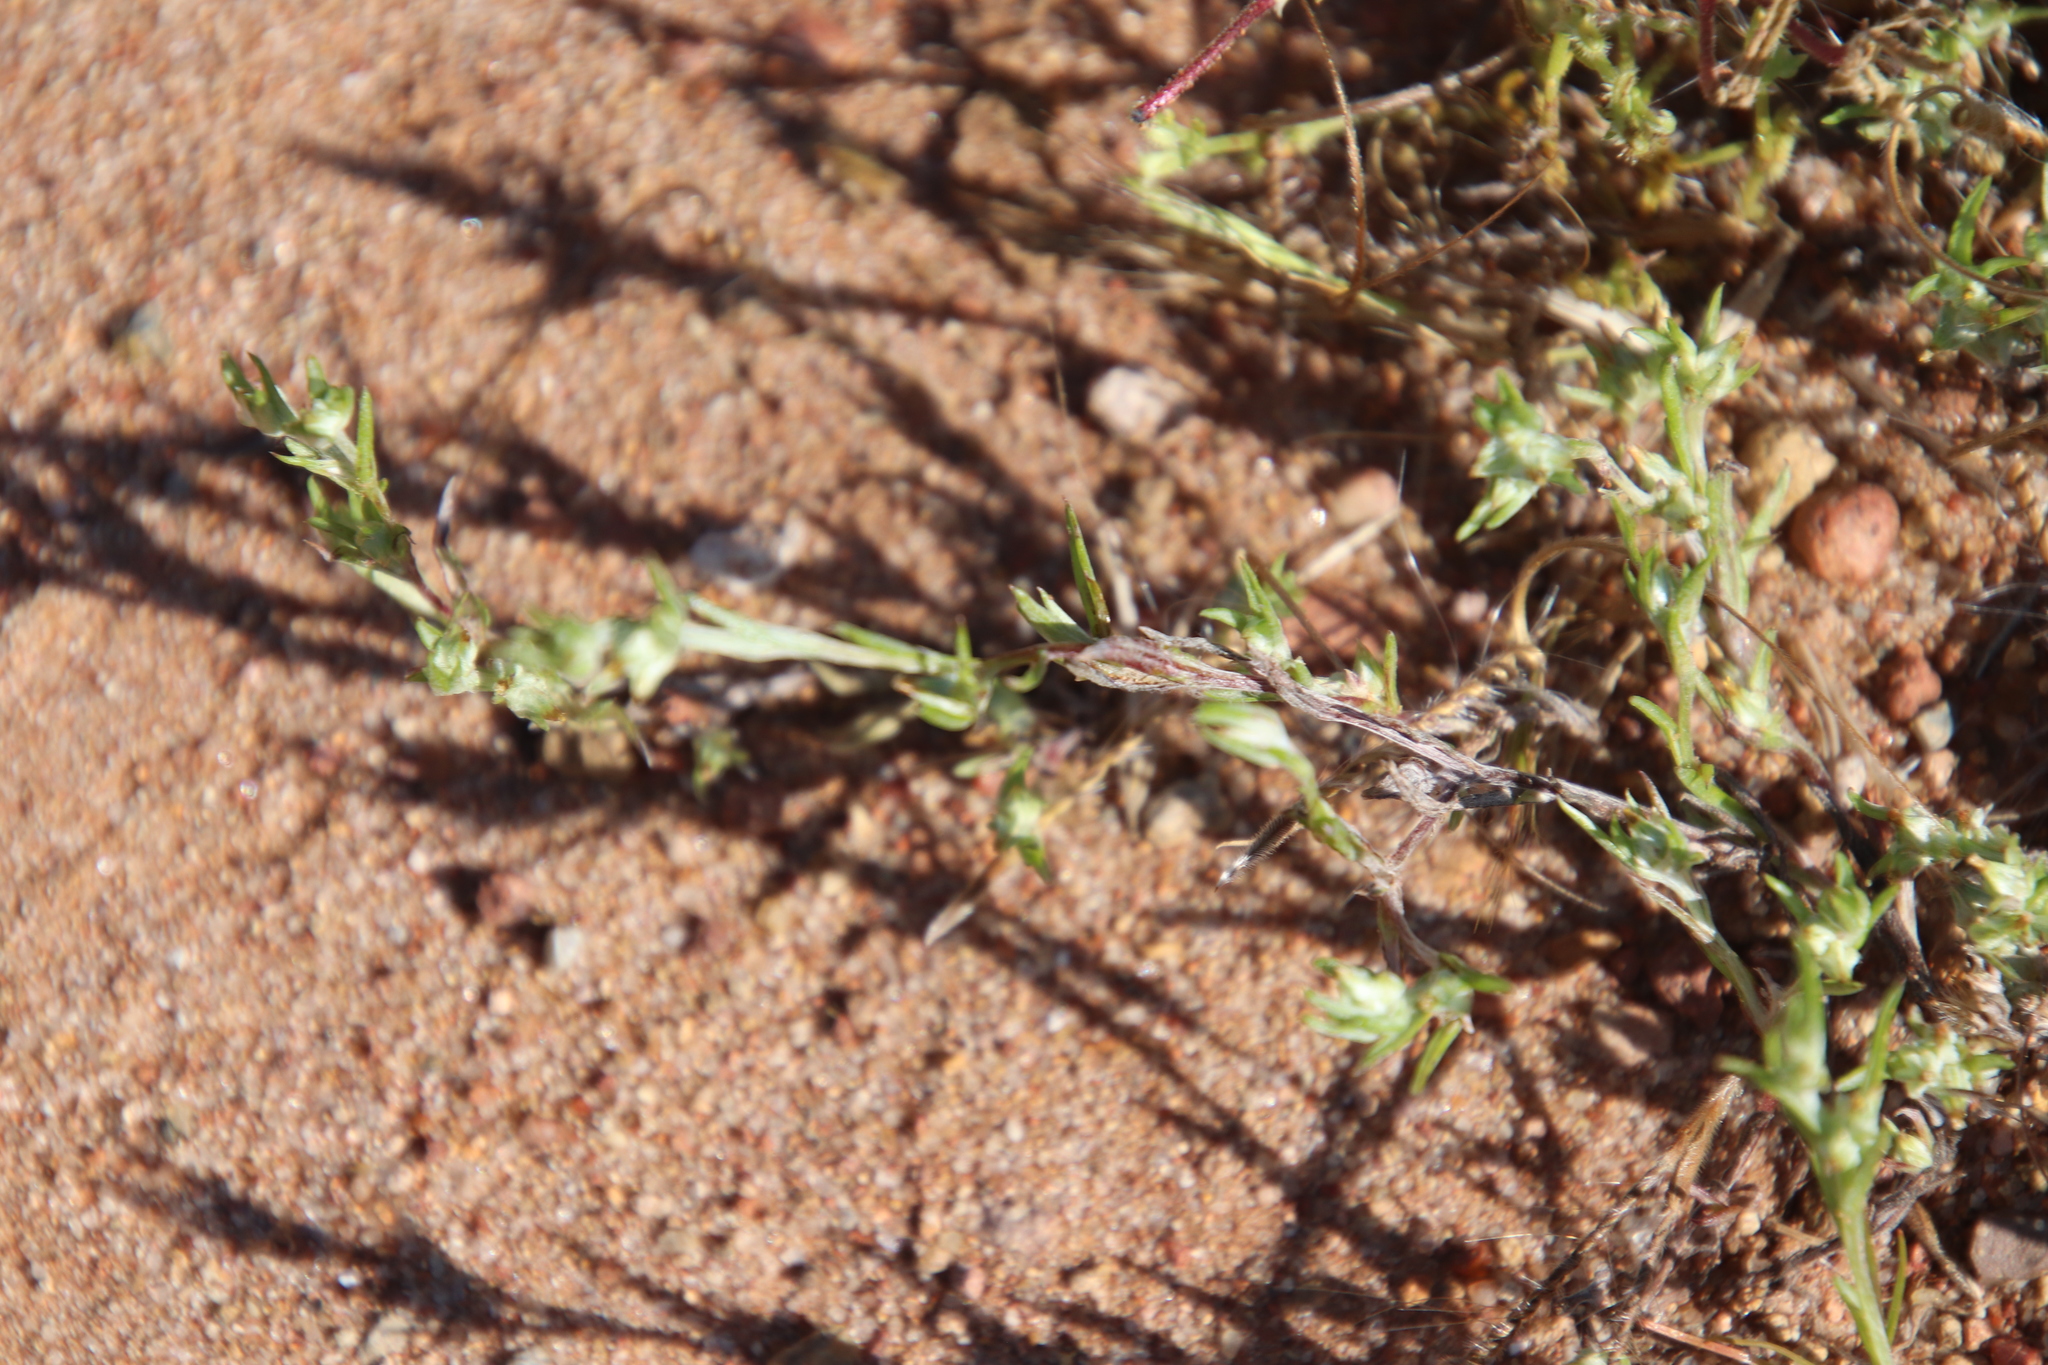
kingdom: Plantae
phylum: Tracheophyta
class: Magnoliopsida
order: Asterales
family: Asteraceae
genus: Logfia
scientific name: Logfia gallica
